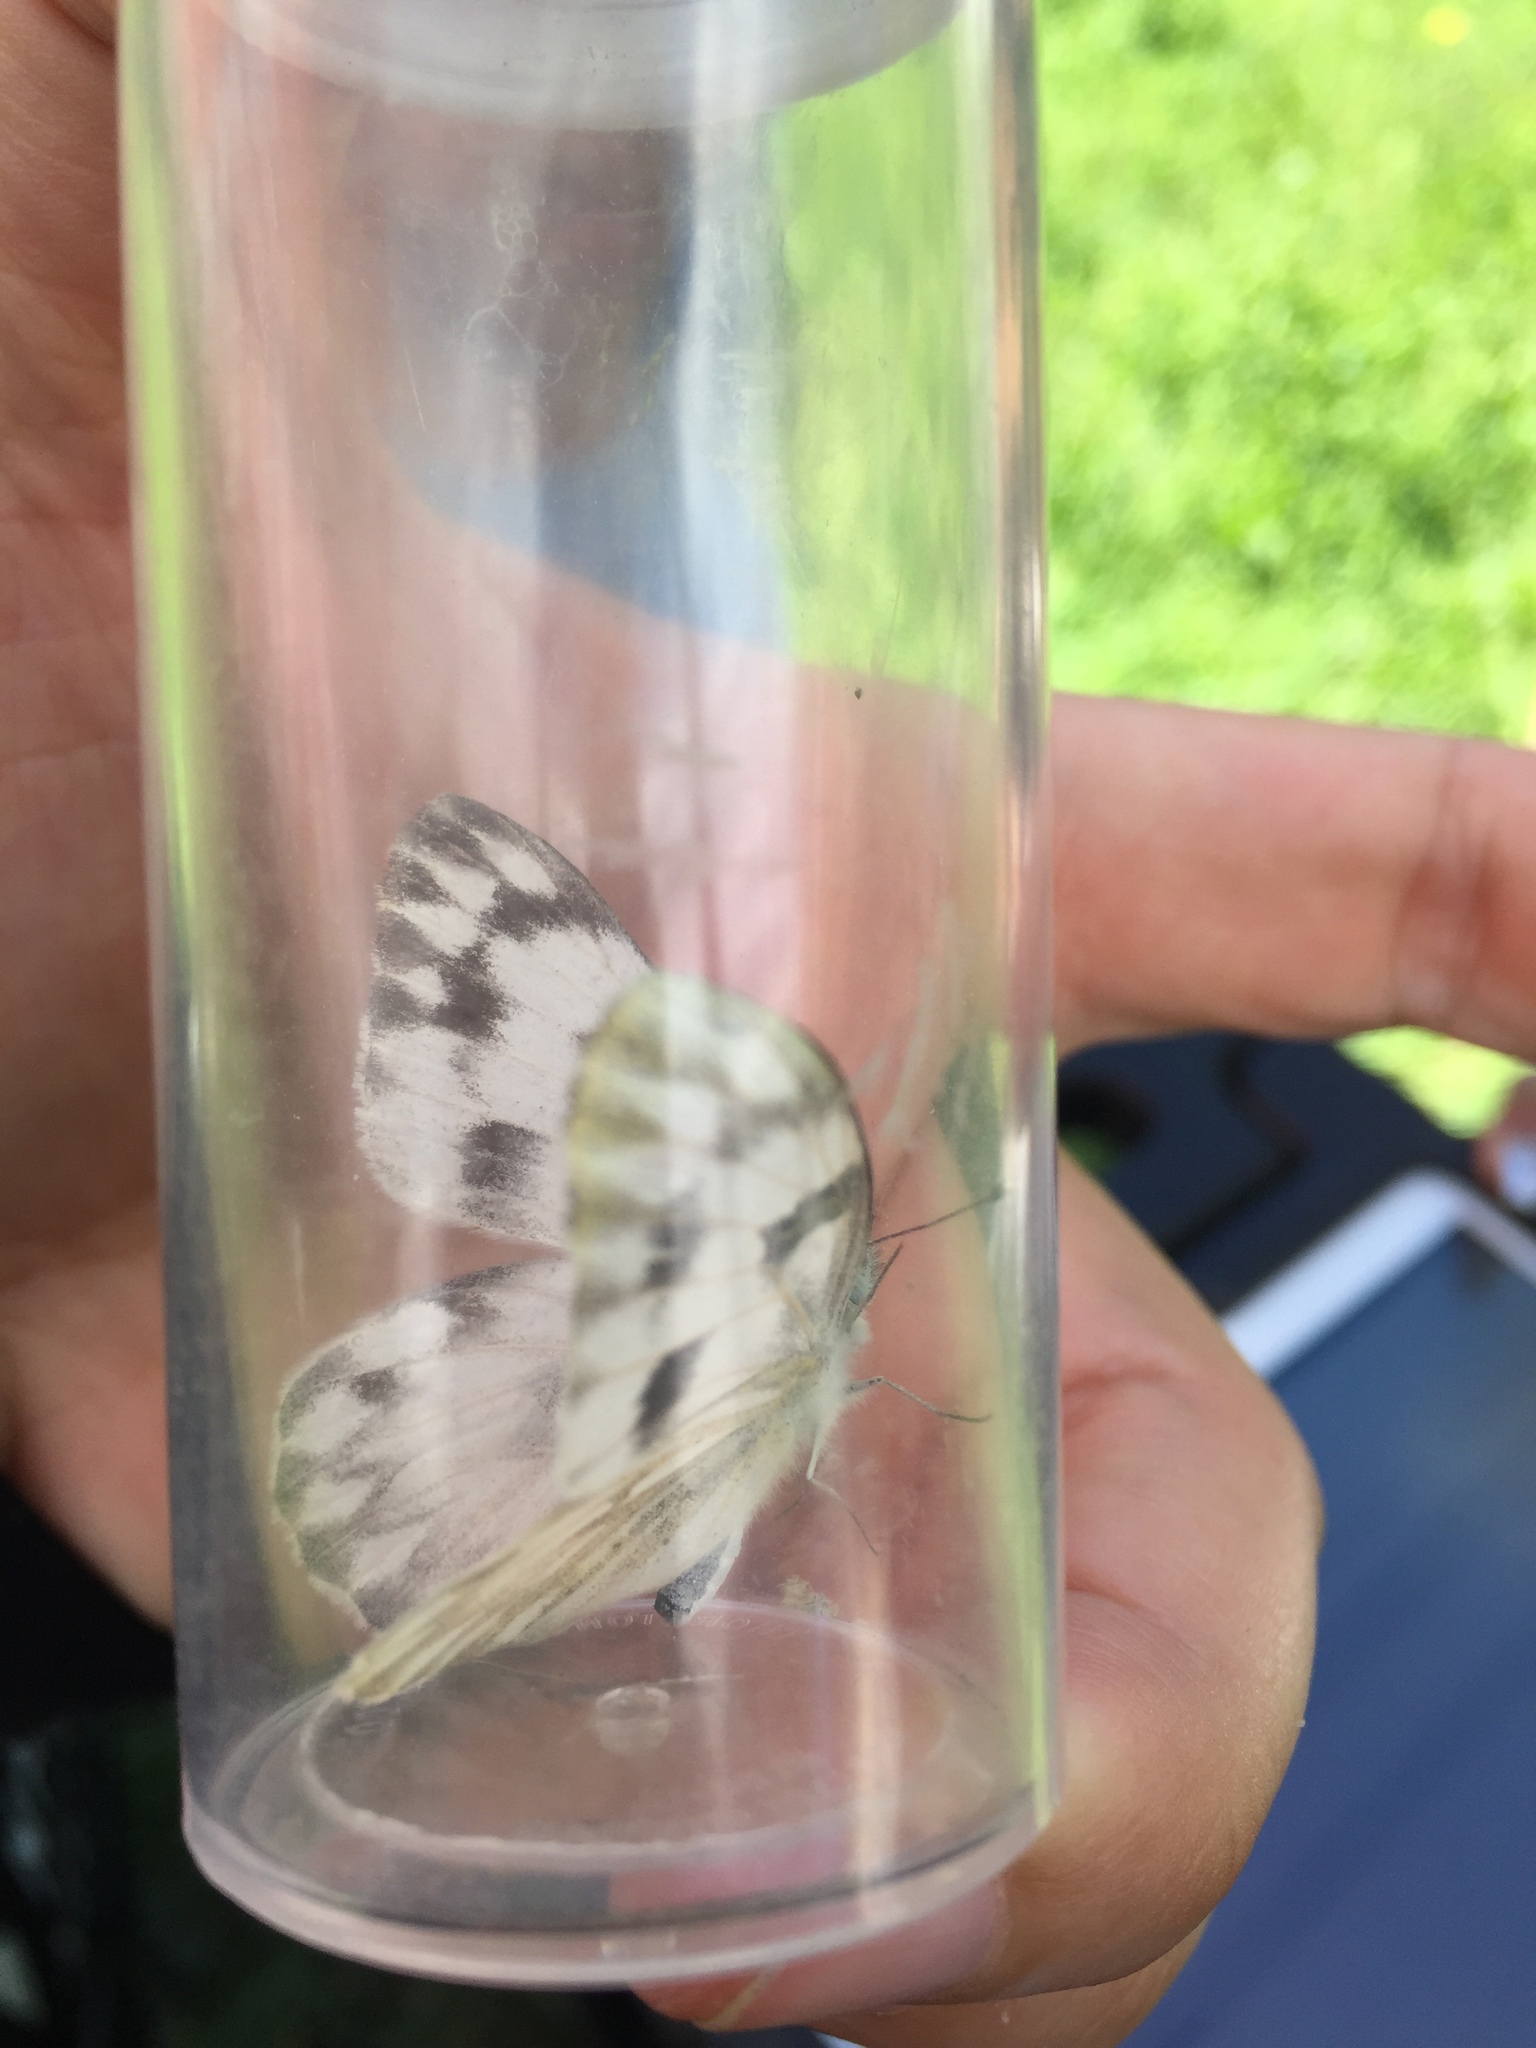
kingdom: Animalia
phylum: Arthropoda
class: Insecta
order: Lepidoptera
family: Pieridae
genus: Pontia
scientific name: Pontia protodice
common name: Checkered white
